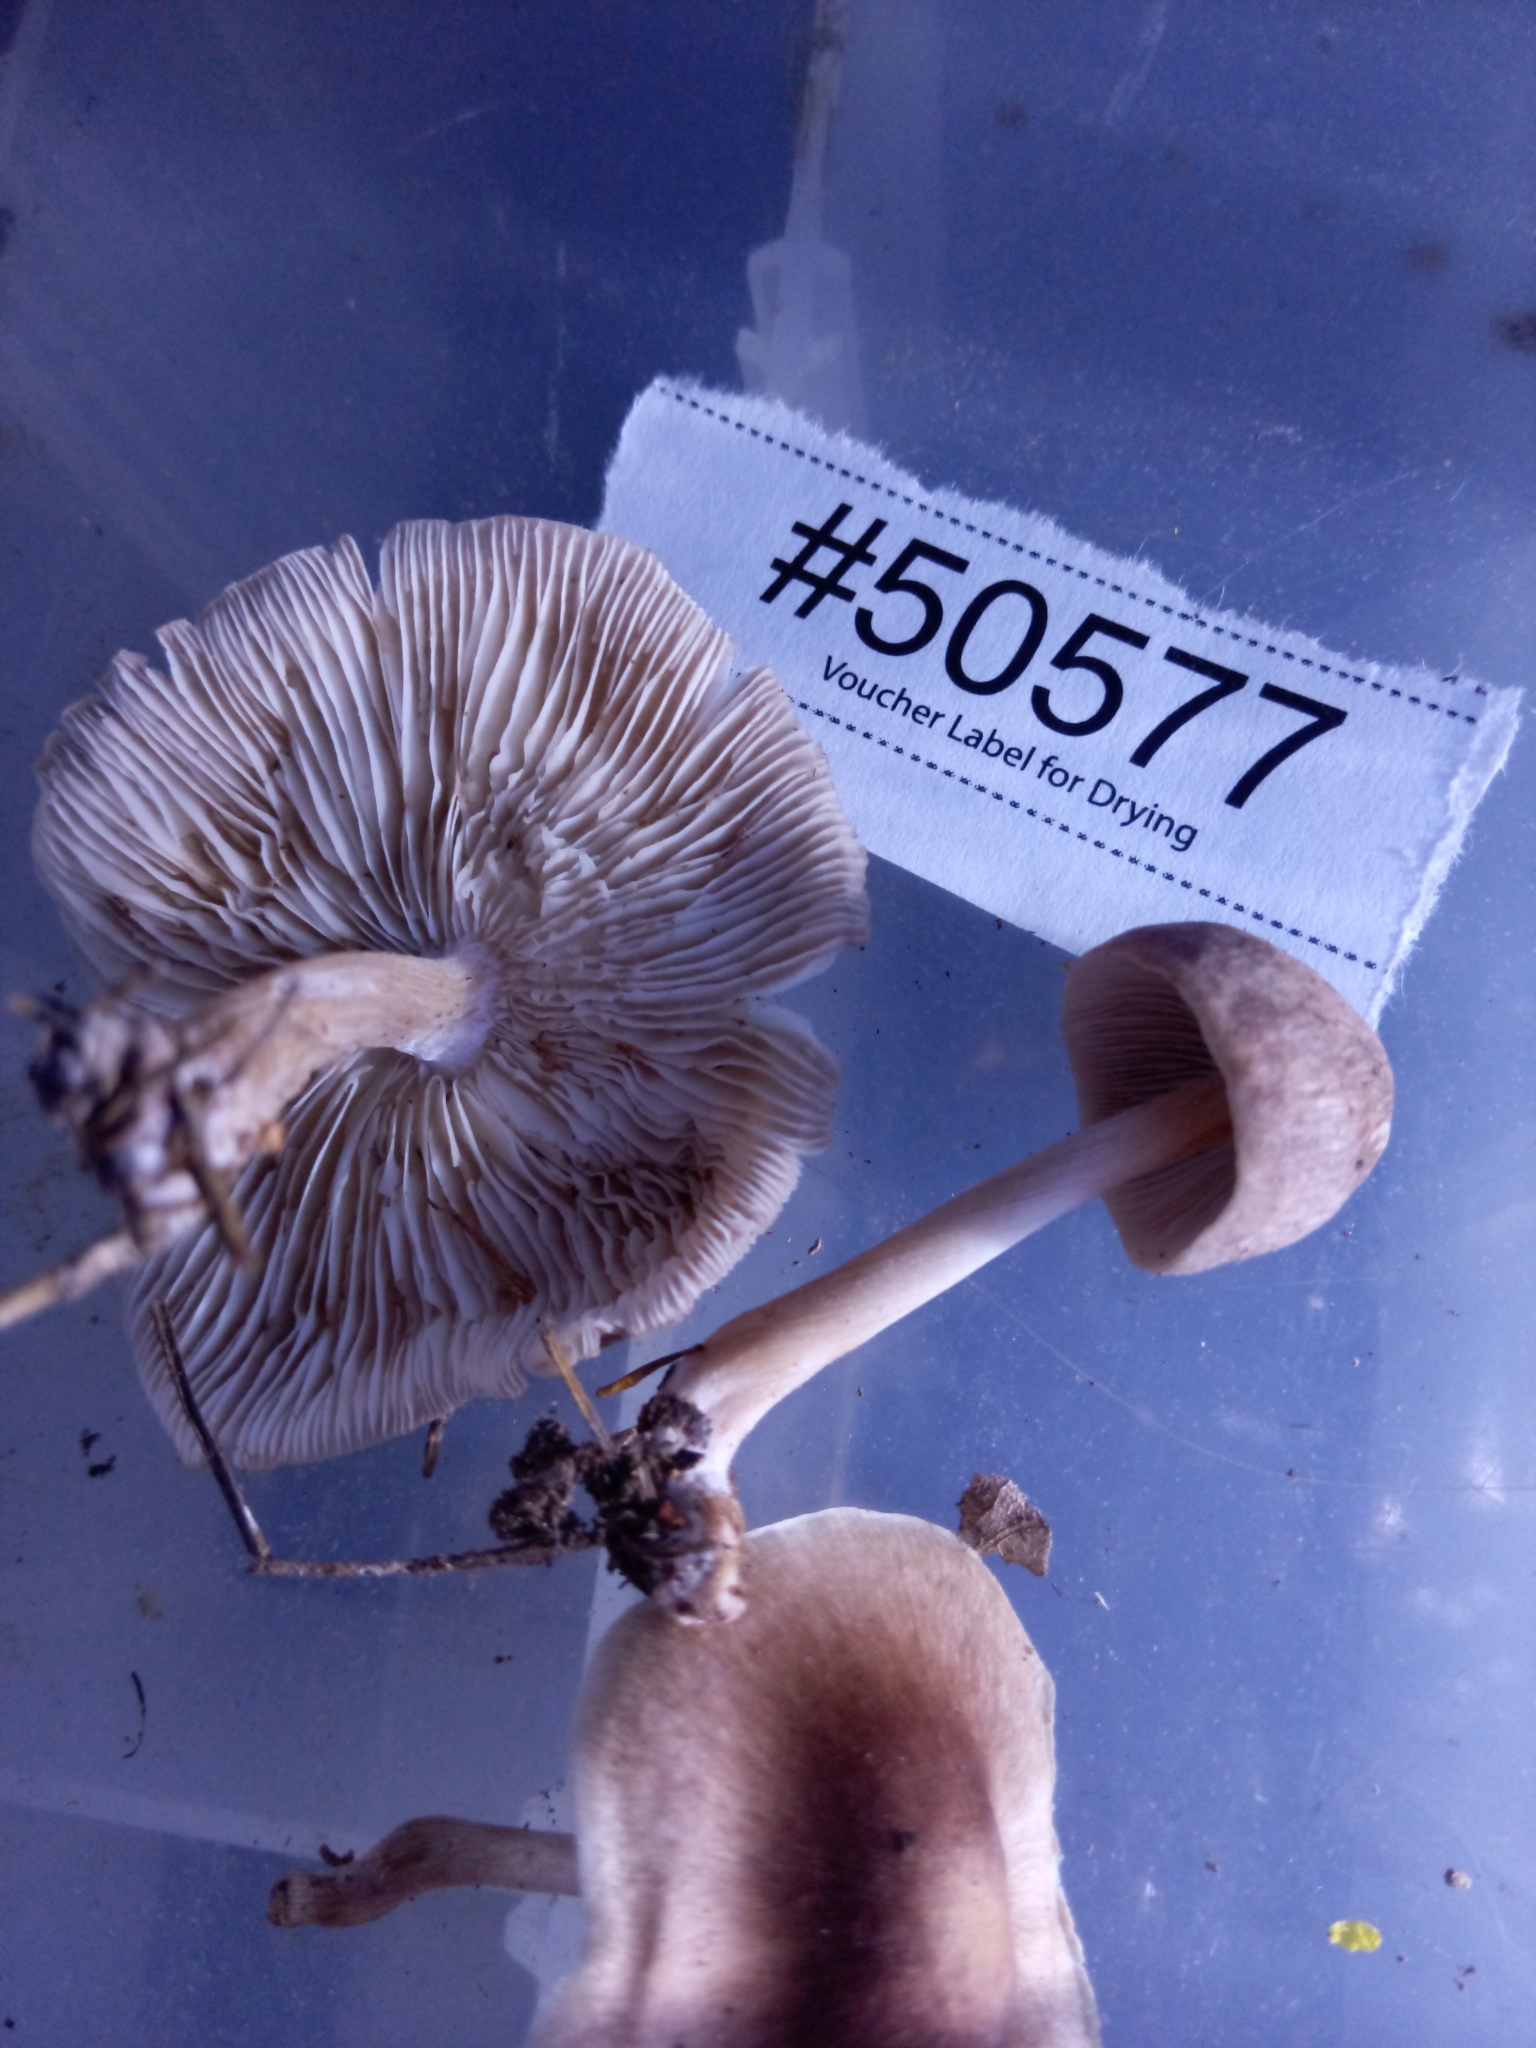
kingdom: Fungi
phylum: Basidiomycota
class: Agaricomycetes
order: Agaricales
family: Omphalotaceae
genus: Collybiopsis
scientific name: Collybiopsis luxurians
